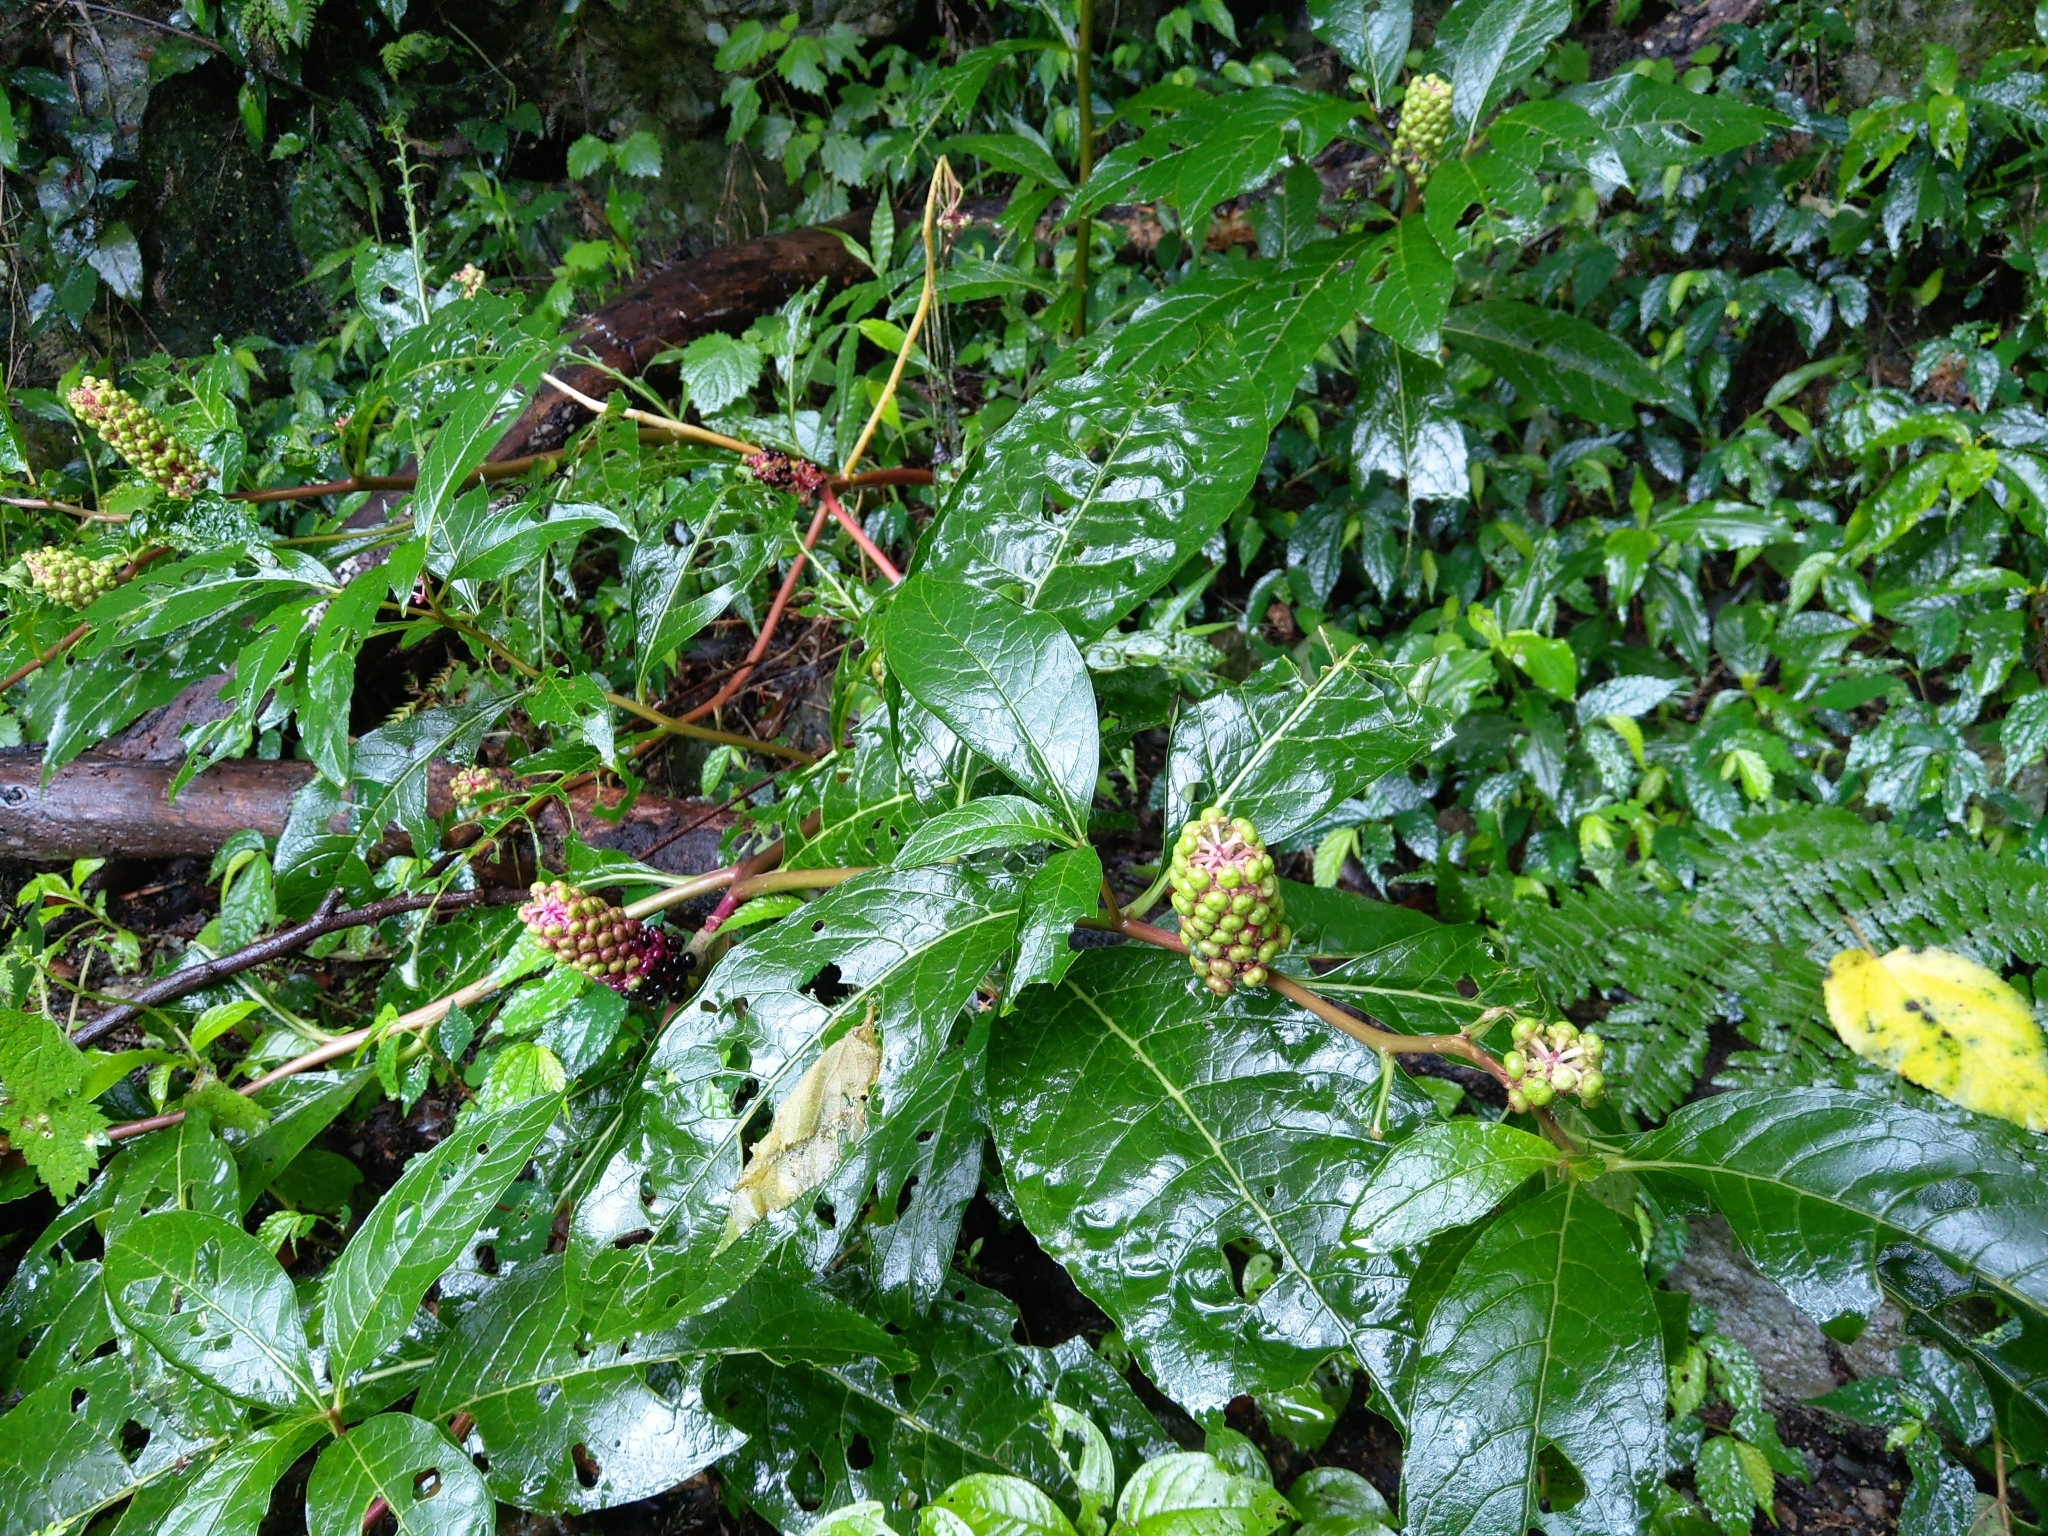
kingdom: Plantae
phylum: Tracheophyta
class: Magnoliopsida
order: Caryophyllales
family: Phytolaccaceae
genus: Phytolacca
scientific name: Phytolacca japonica
